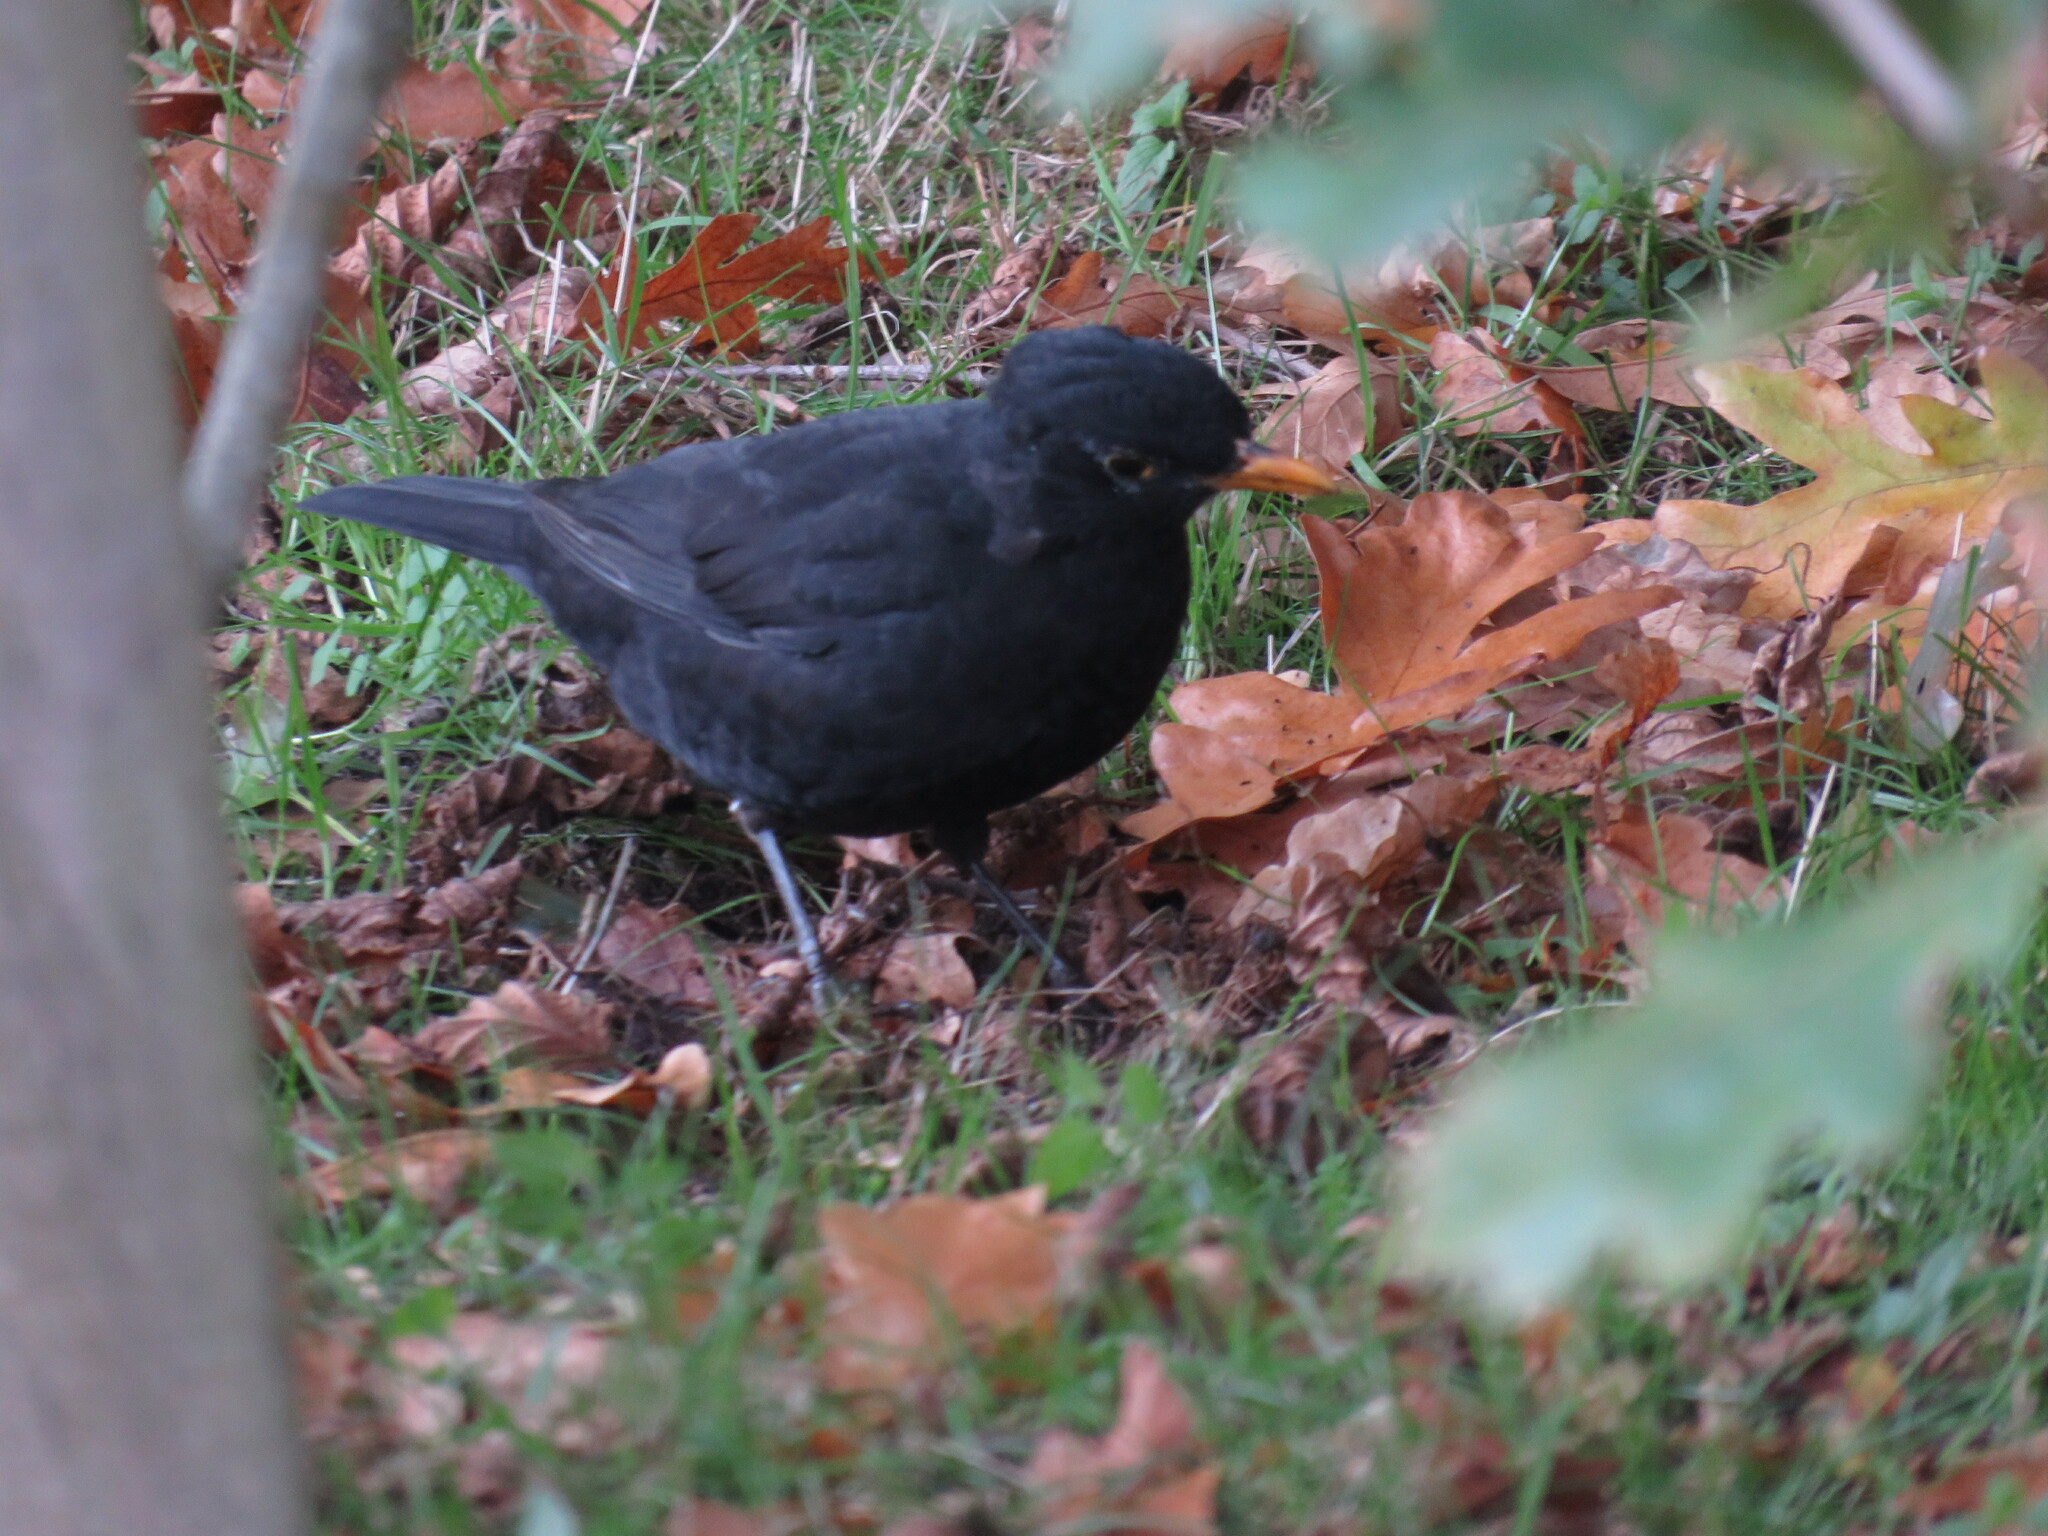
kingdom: Animalia
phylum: Chordata
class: Aves
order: Passeriformes
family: Turdidae
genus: Turdus
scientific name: Turdus merula
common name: Common blackbird
